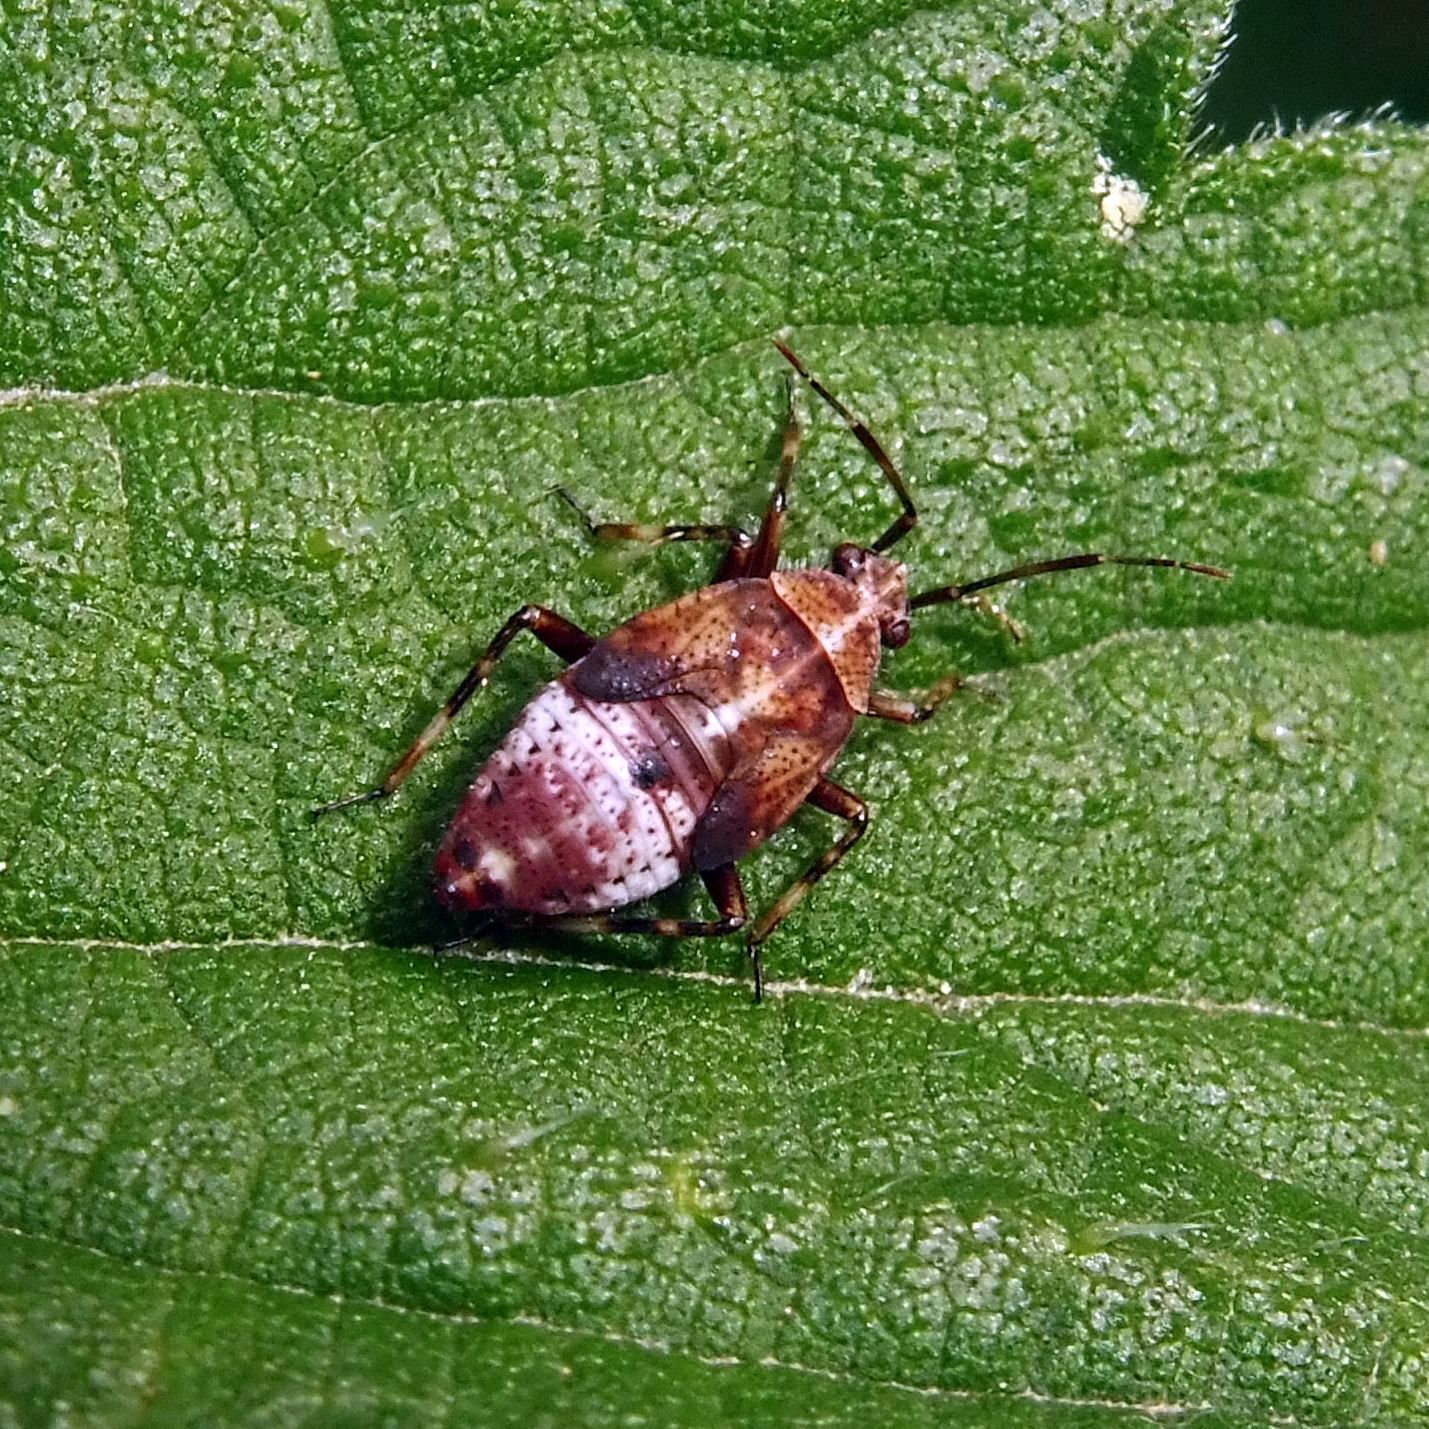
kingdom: Animalia
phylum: Arthropoda
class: Insecta
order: Hemiptera
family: Miridae
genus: Deraeocoris
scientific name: Deraeocoris flavilinea
